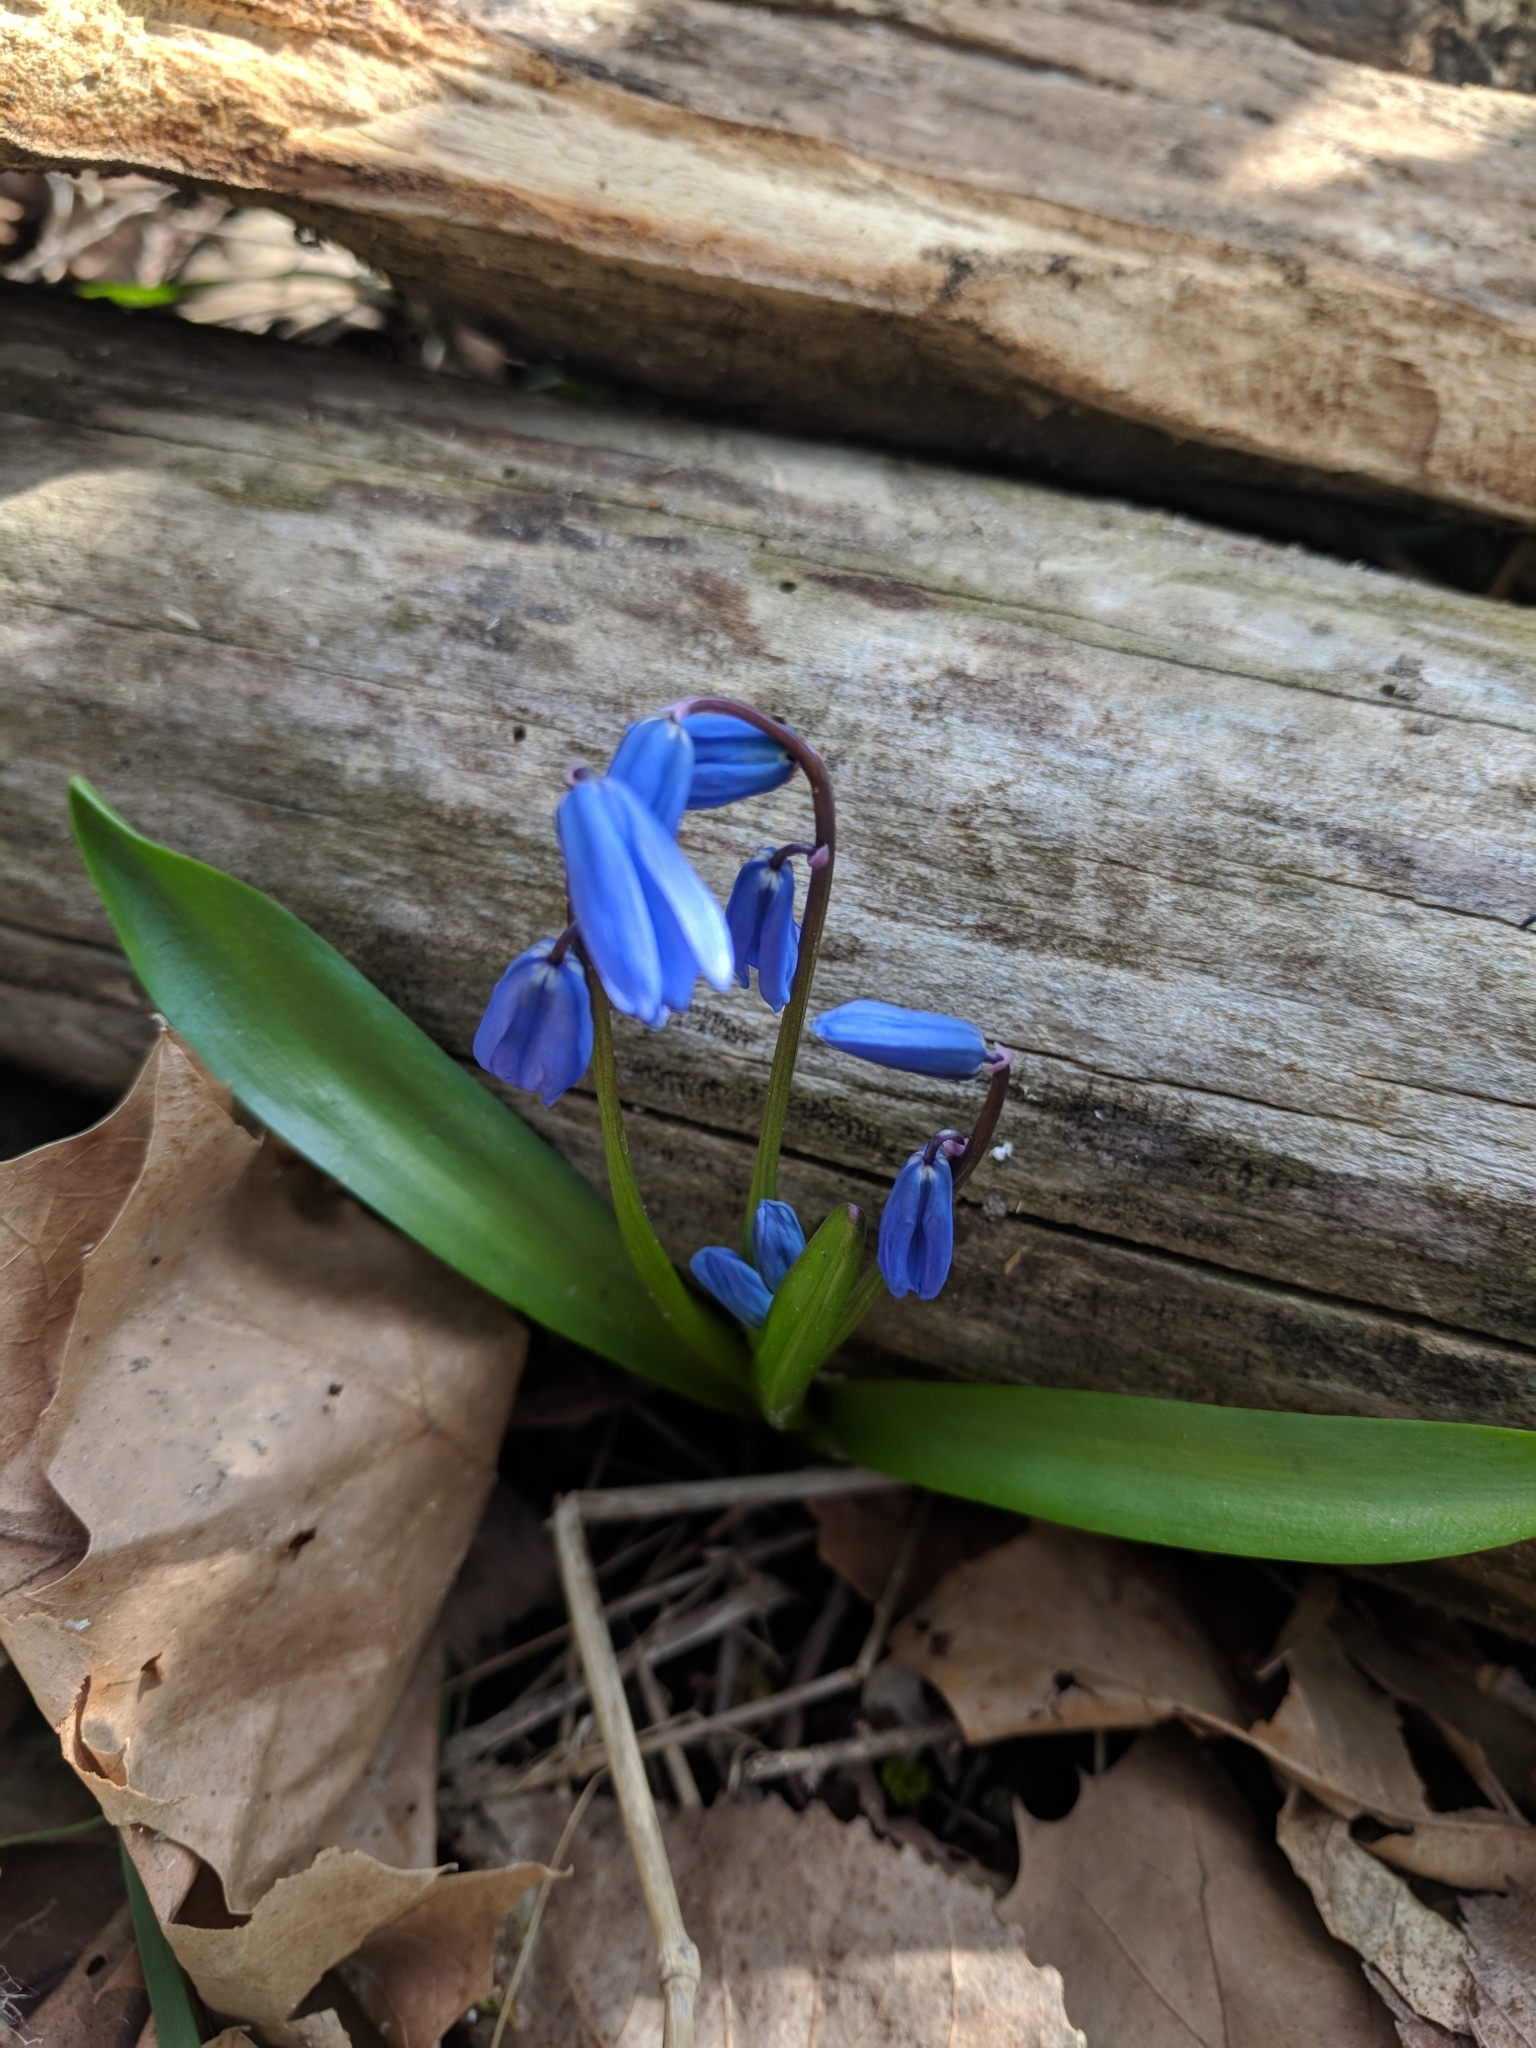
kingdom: Plantae
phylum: Tracheophyta
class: Liliopsida
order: Asparagales
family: Asparagaceae
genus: Scilla
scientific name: Scilla siberica
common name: Siberian squill
